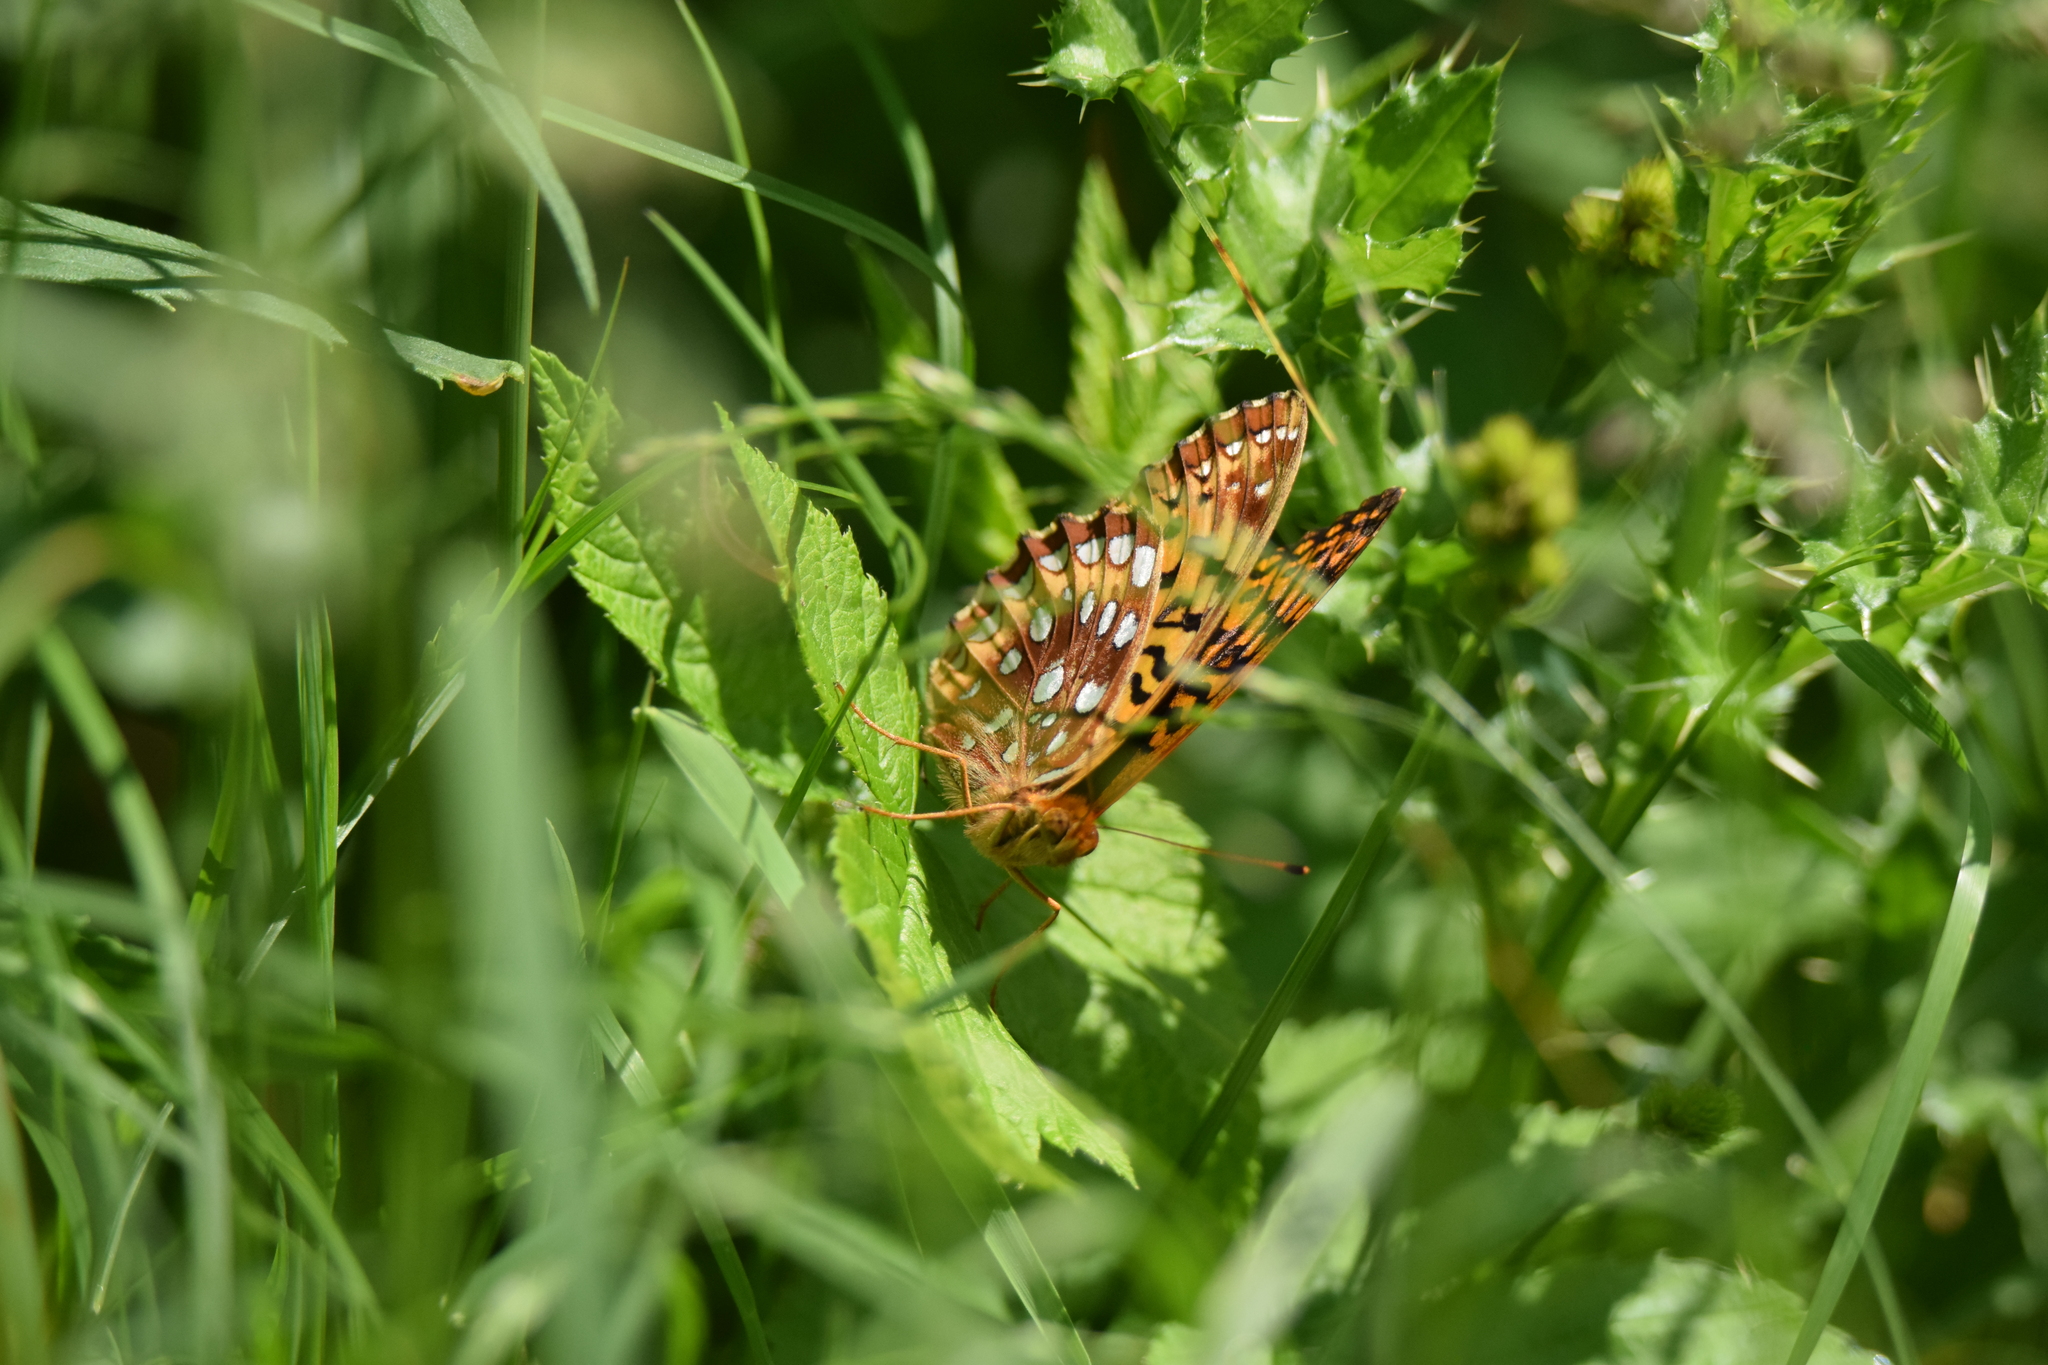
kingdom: Animalia
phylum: Arthropoda
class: Insecta
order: Lepidoptera
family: Nymphalidae
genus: Speyeria
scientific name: Speyeria cybele
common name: Great spangled fritillary
